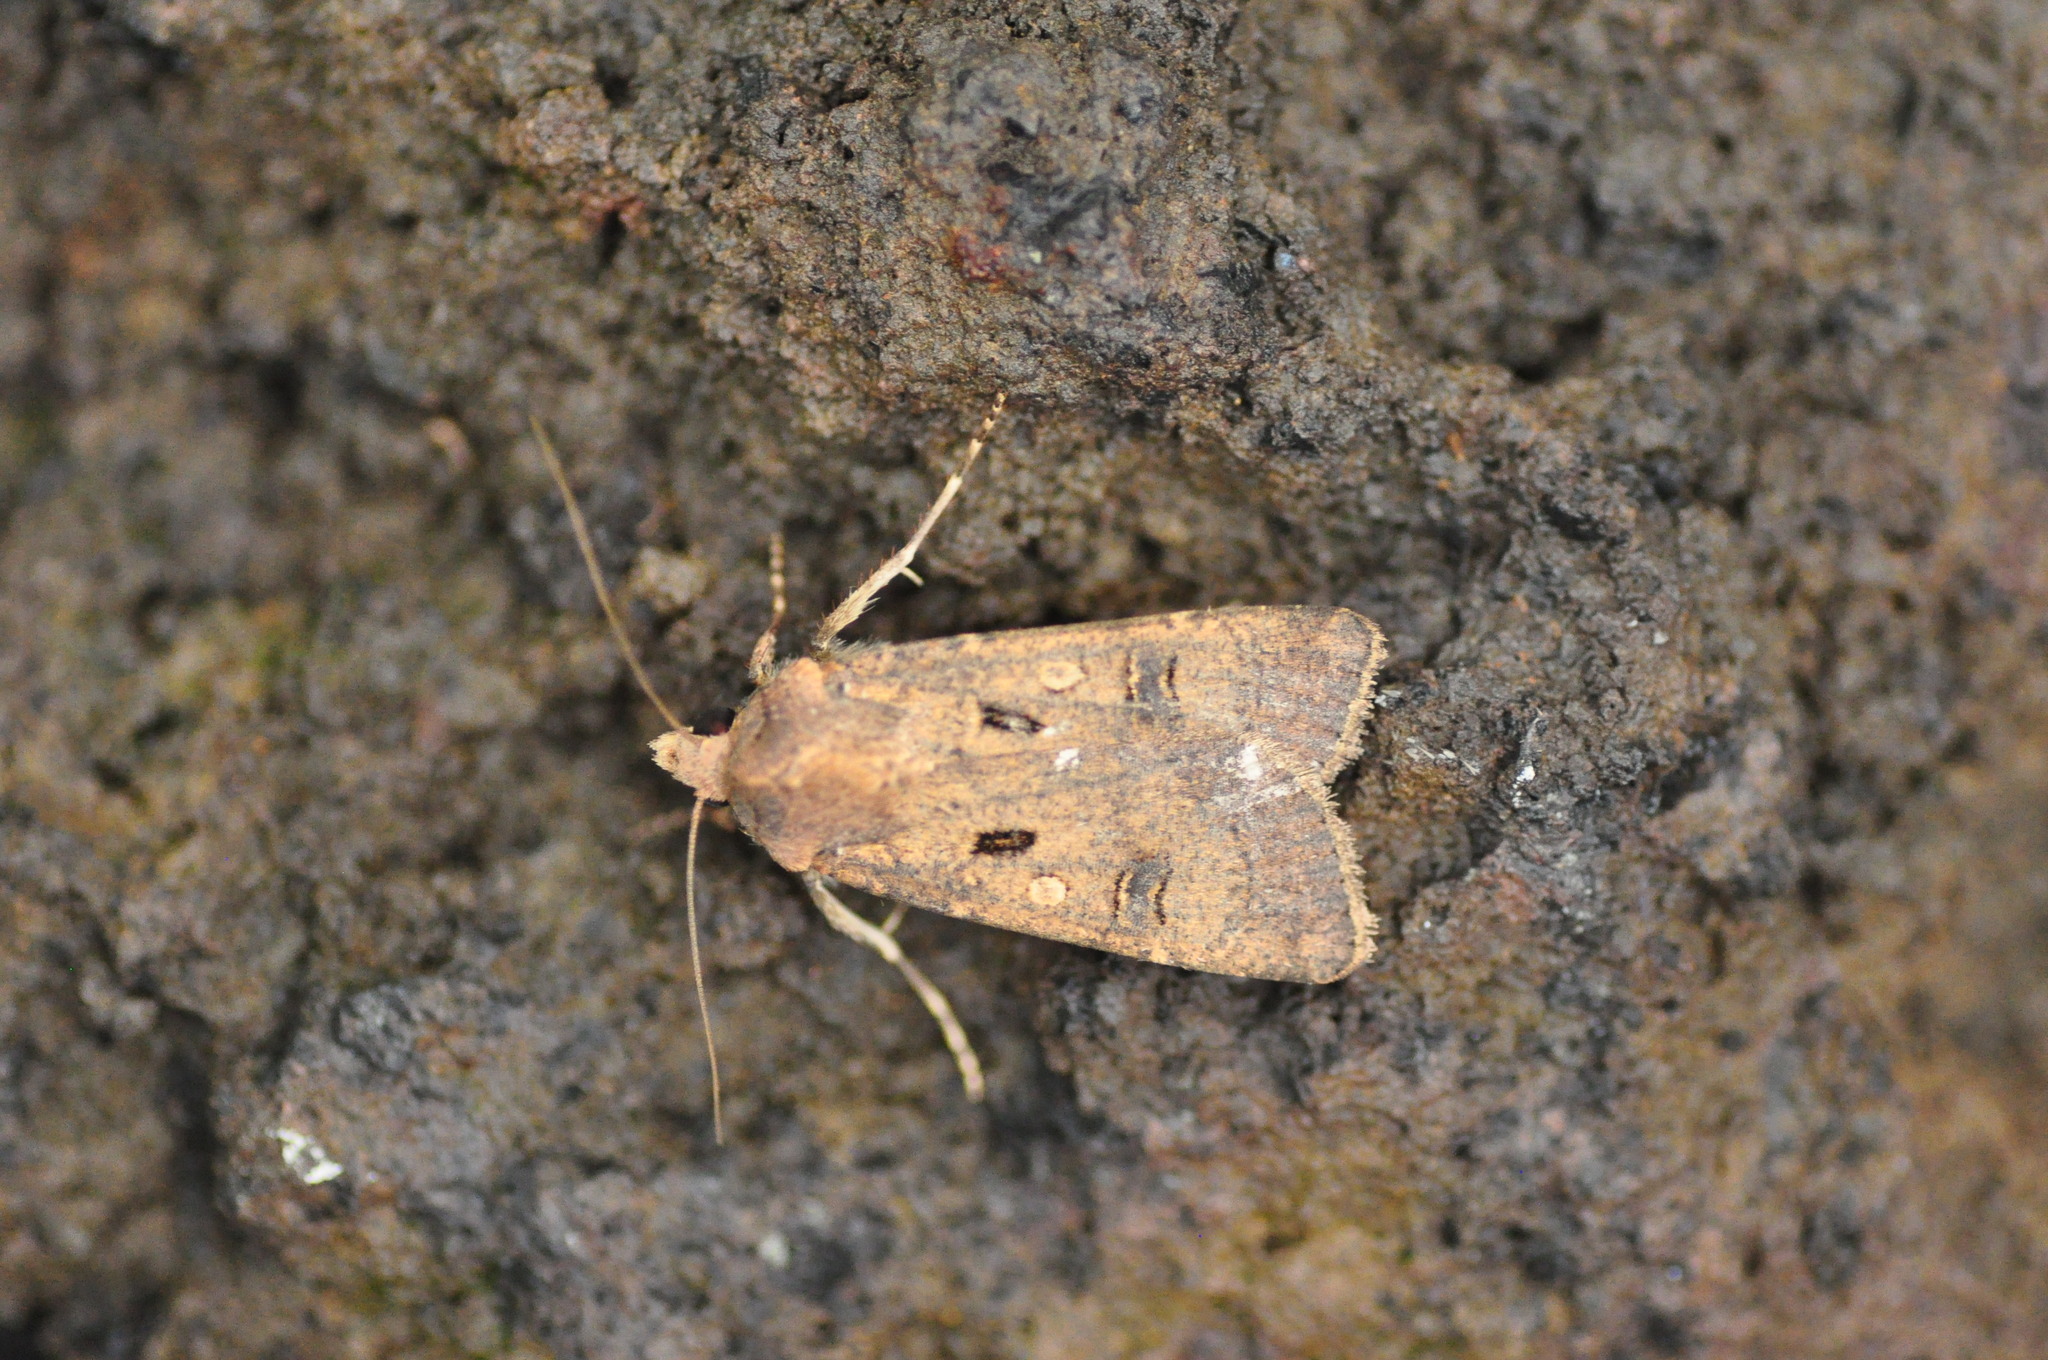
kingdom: Animalia
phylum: Arthropoda
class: Insecta
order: Lepidoptera
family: Noctuidae
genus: Agrotis
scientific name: Agrotis trux
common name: Crescent dart
